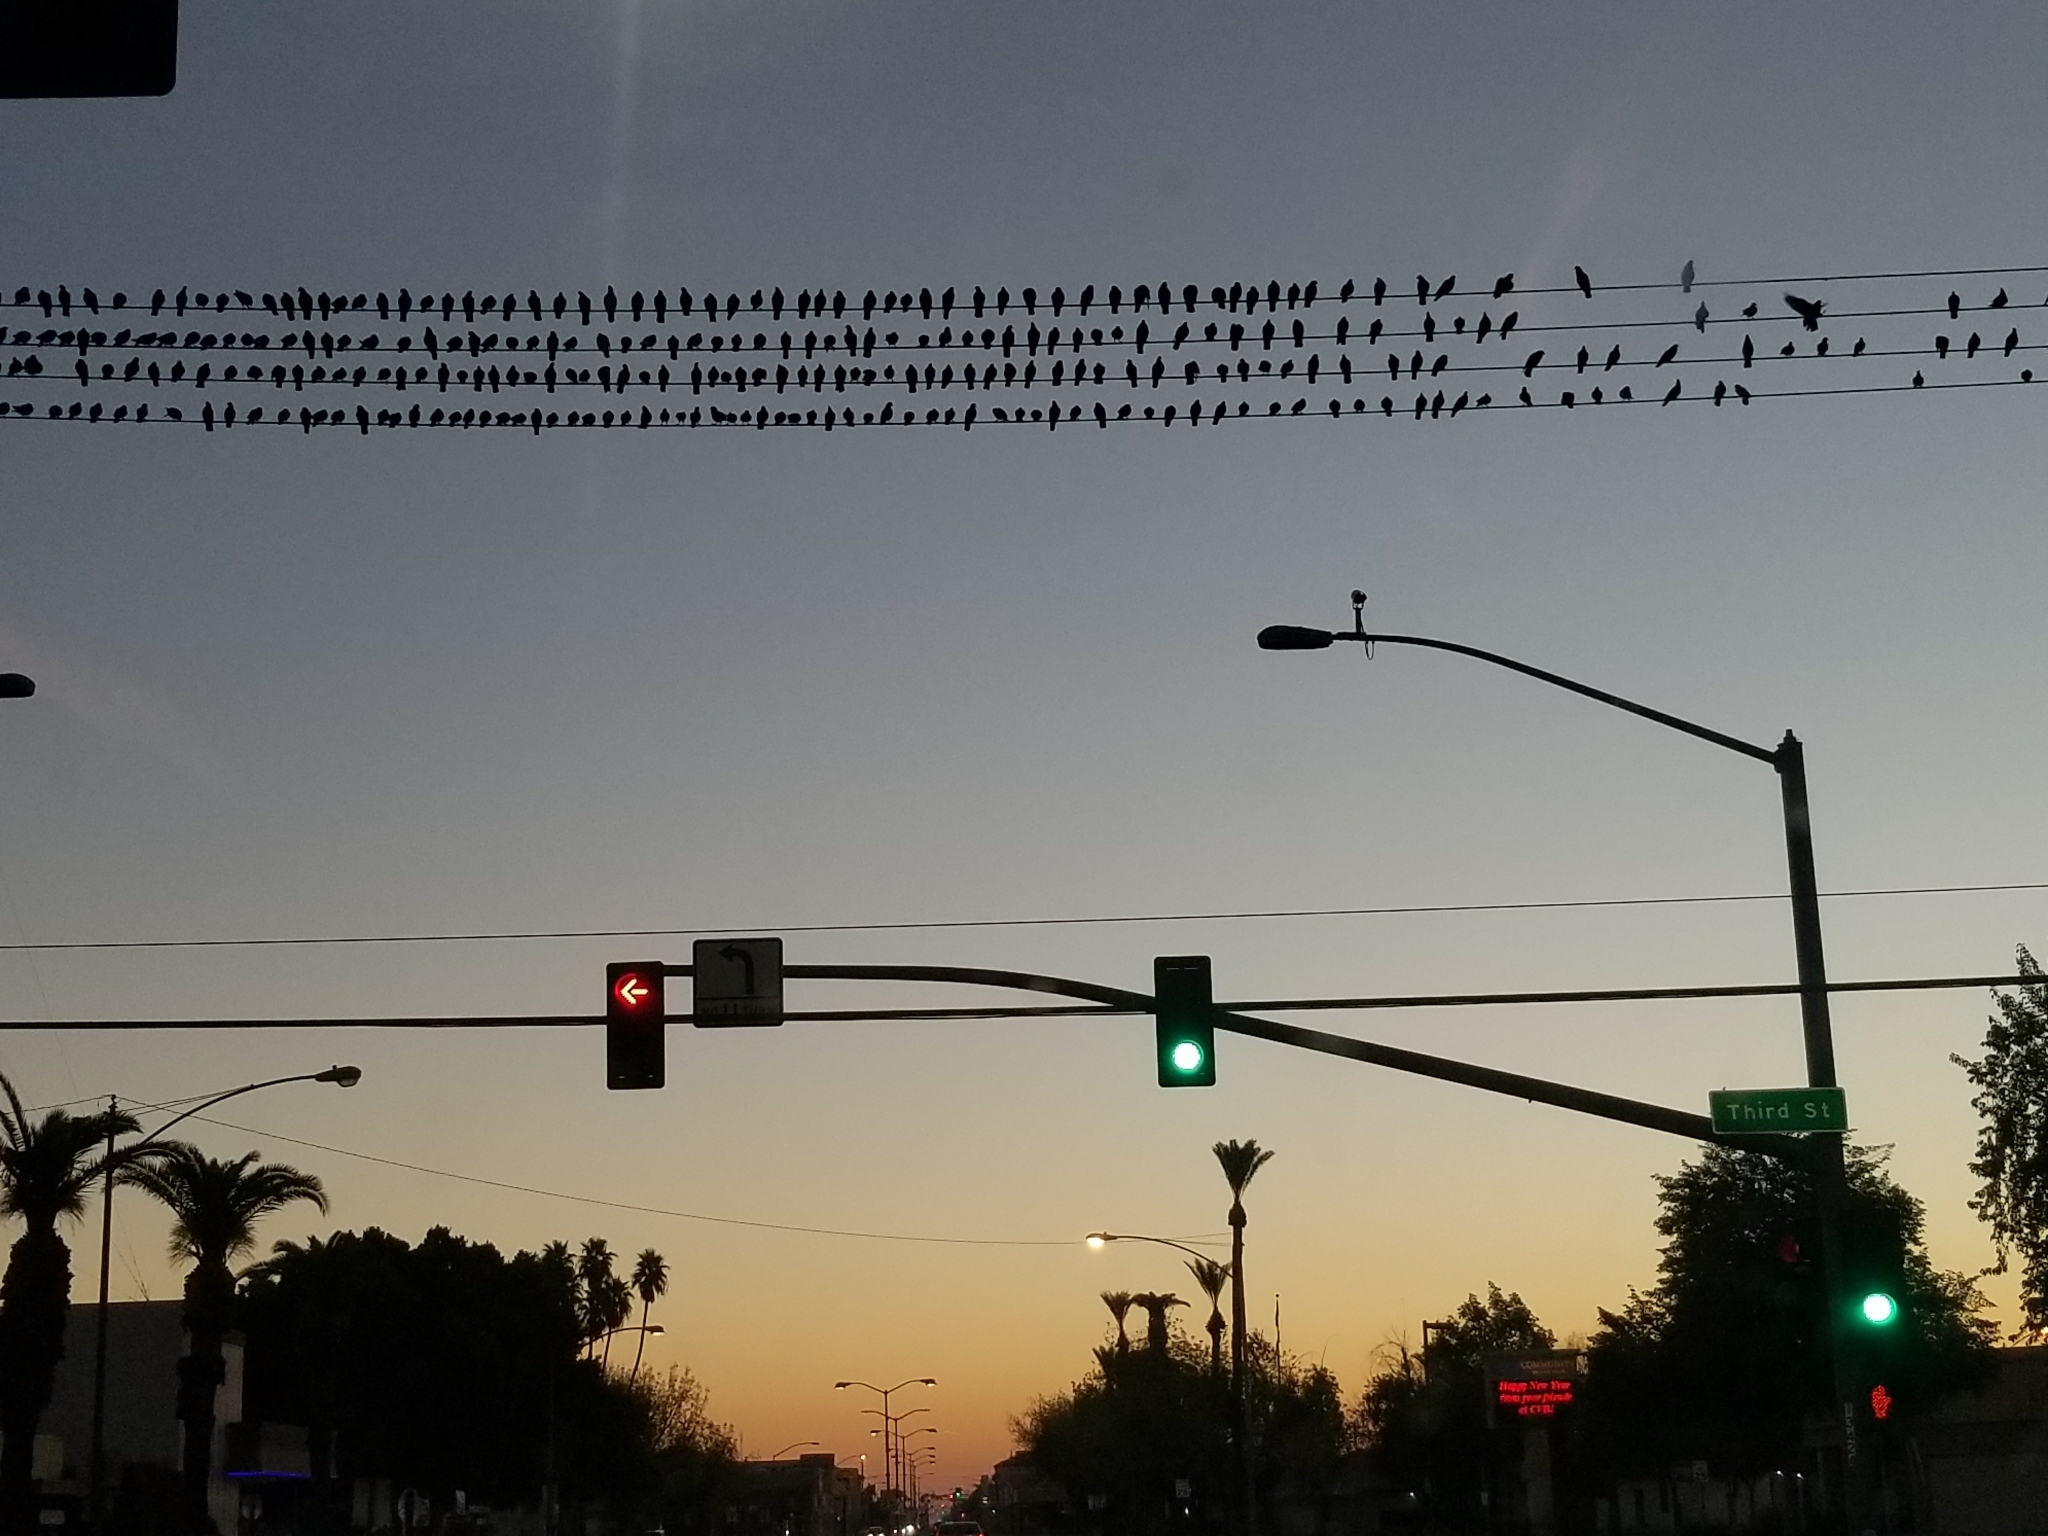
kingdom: Animalia
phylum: Chordata
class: Aves
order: Columbiformes
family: Columbidae
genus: Columba
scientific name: Columba livia
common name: Rock pigeon
